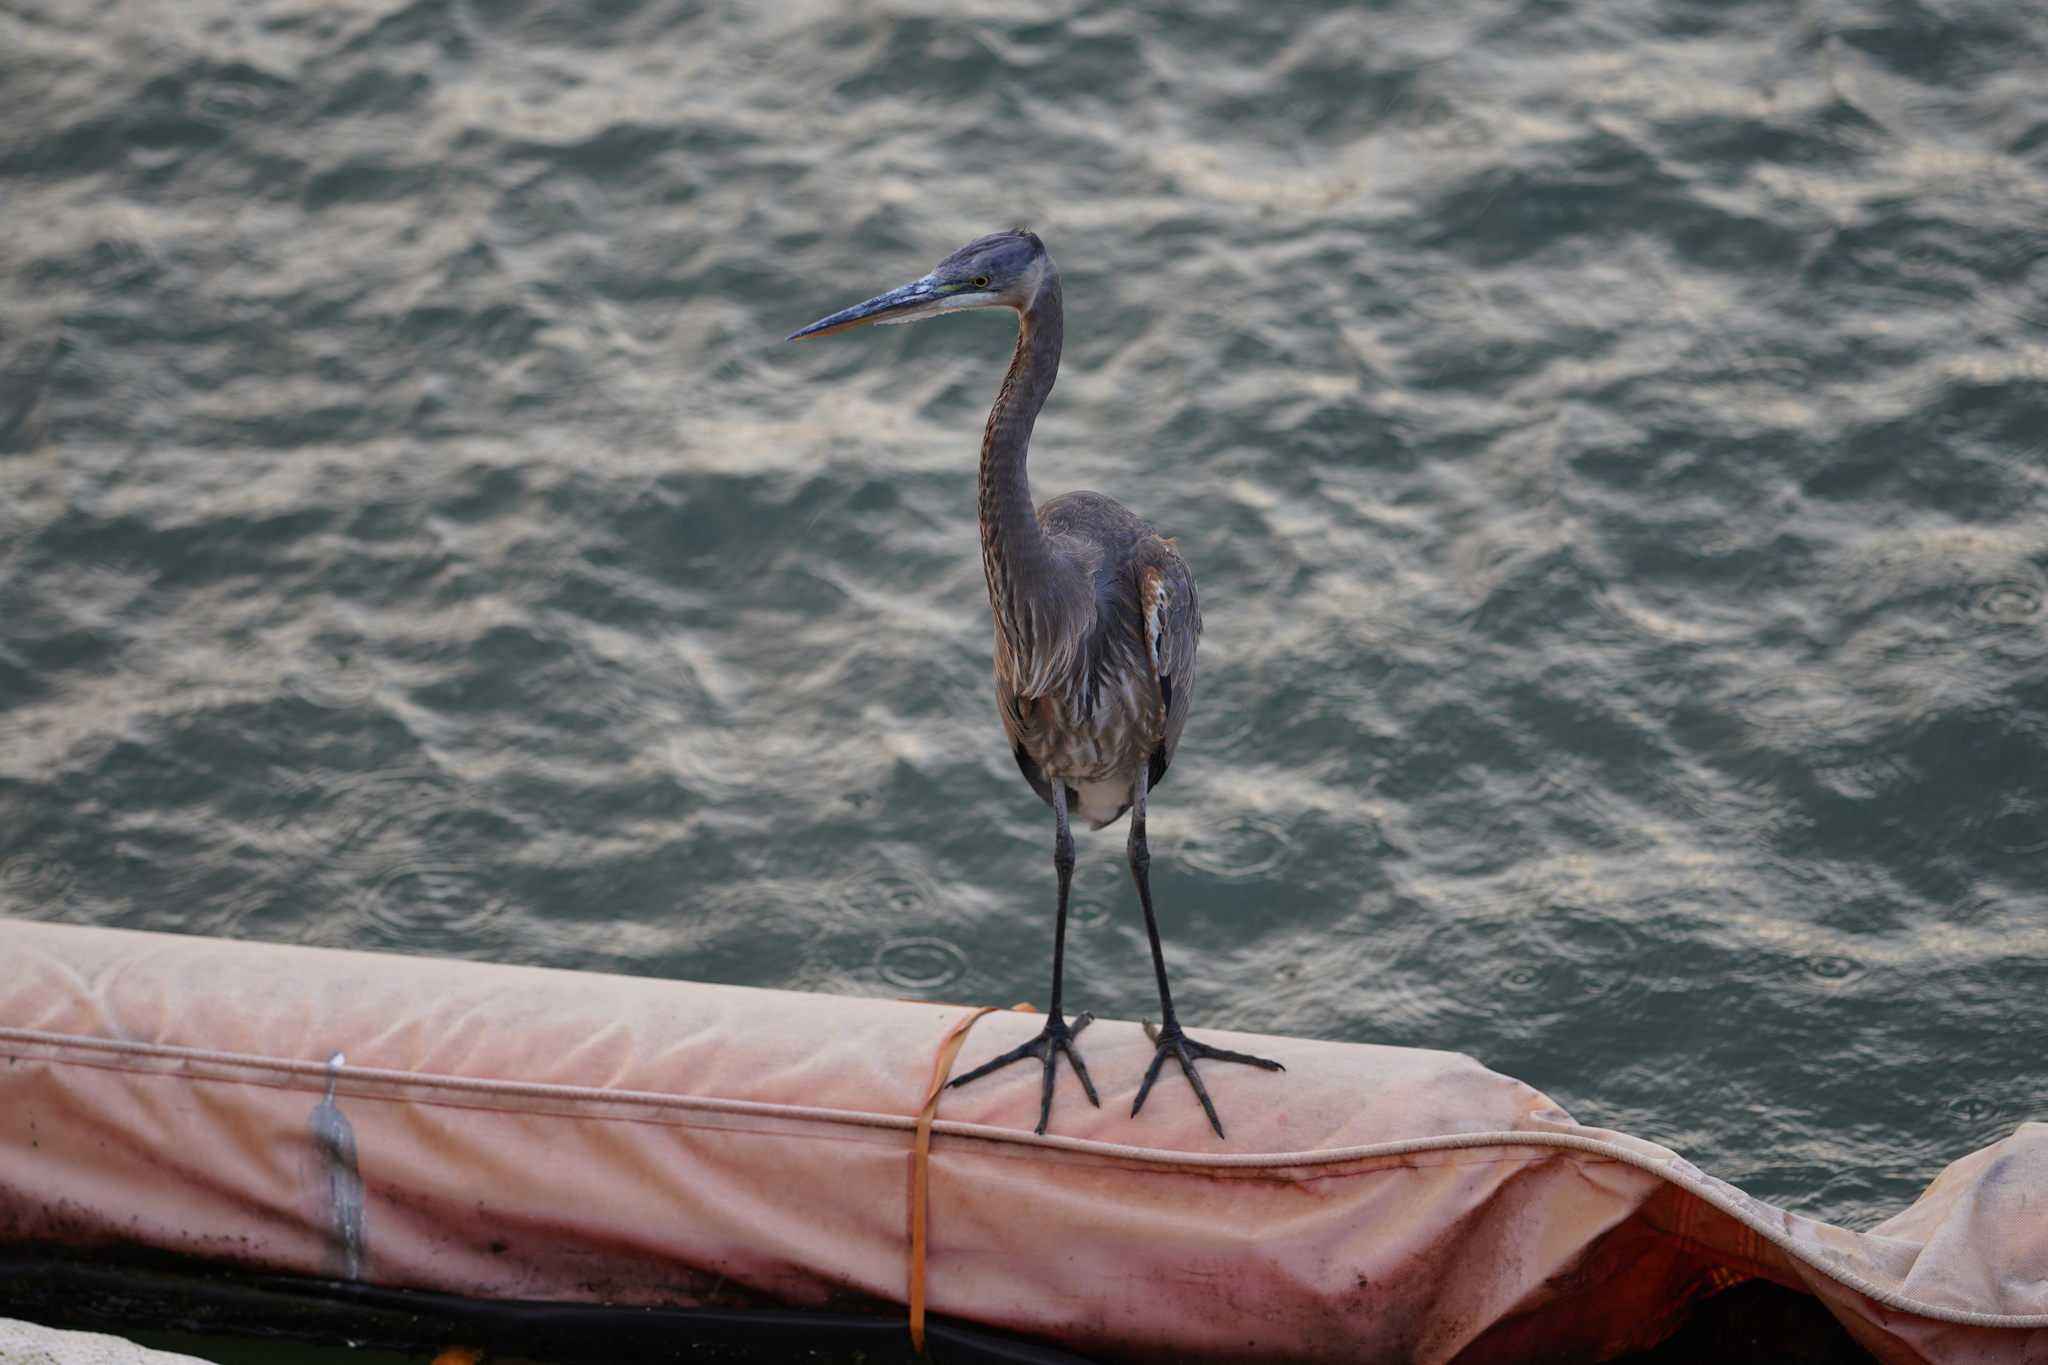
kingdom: Animalia
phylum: Chordata
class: Aves
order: Pelecaniformes
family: Ardeidae
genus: Ardea
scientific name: Ardea herodias
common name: Great blue heron
